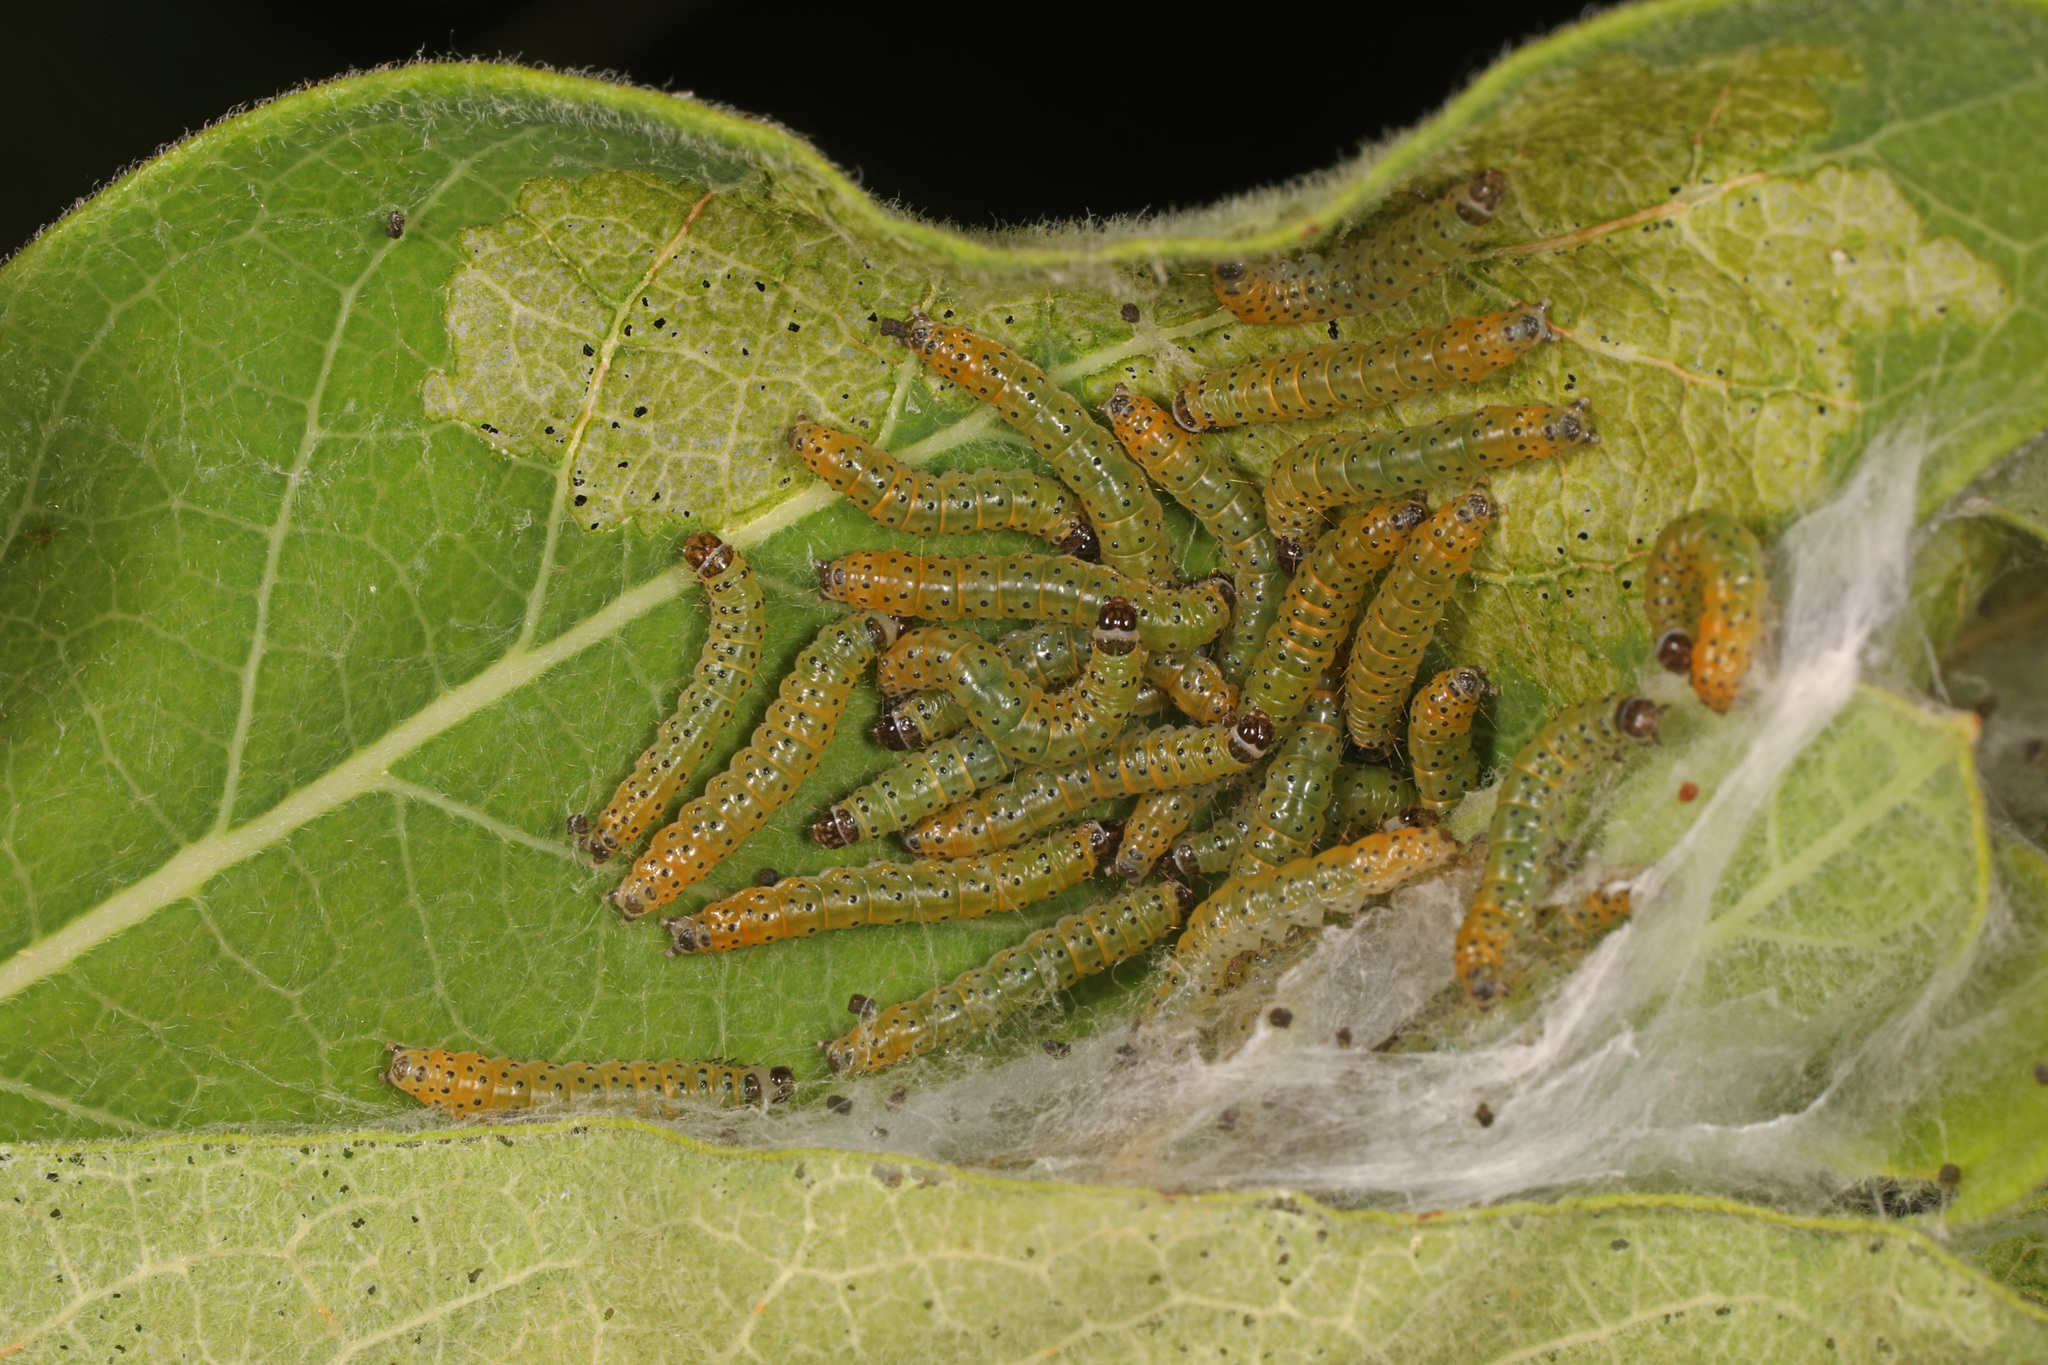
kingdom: Animalia
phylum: Arthropoda
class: Insecta
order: Lepidoptera
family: Crambidae
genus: Saucrobotys
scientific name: Saucrobotys futilalis
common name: Dogbane saucrobotys moth
